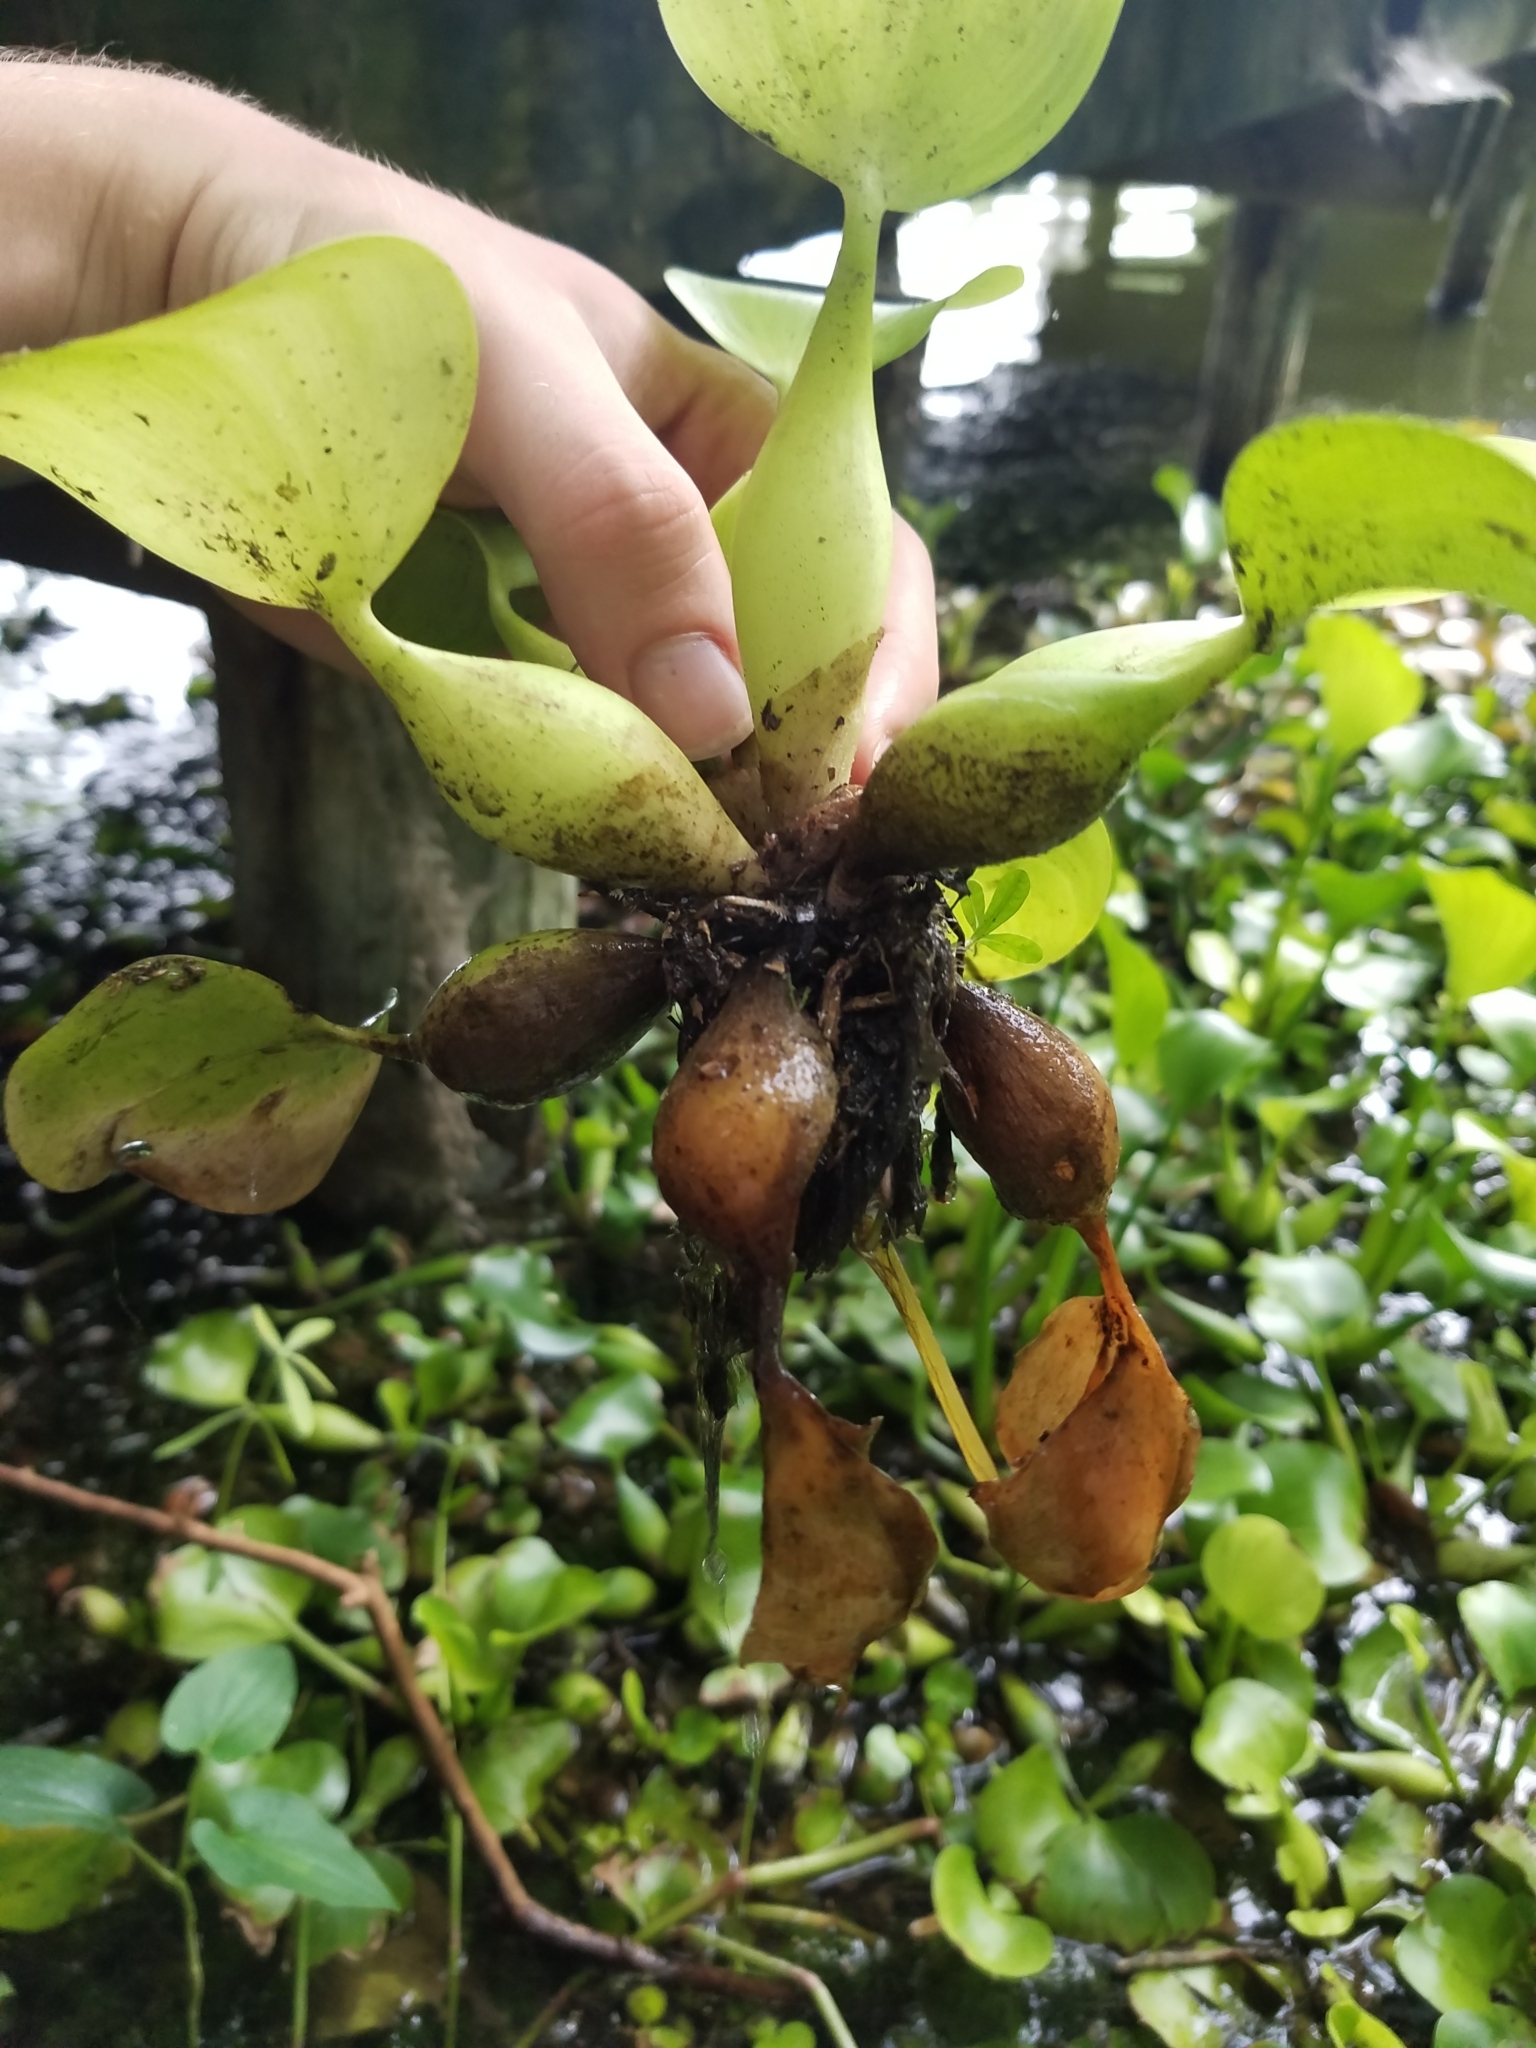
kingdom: Plantae
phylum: Tracheophyta
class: Liliopsida
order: Commelinales
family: Pontederiaceae
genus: Pontederia
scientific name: Pontederia crassipes
